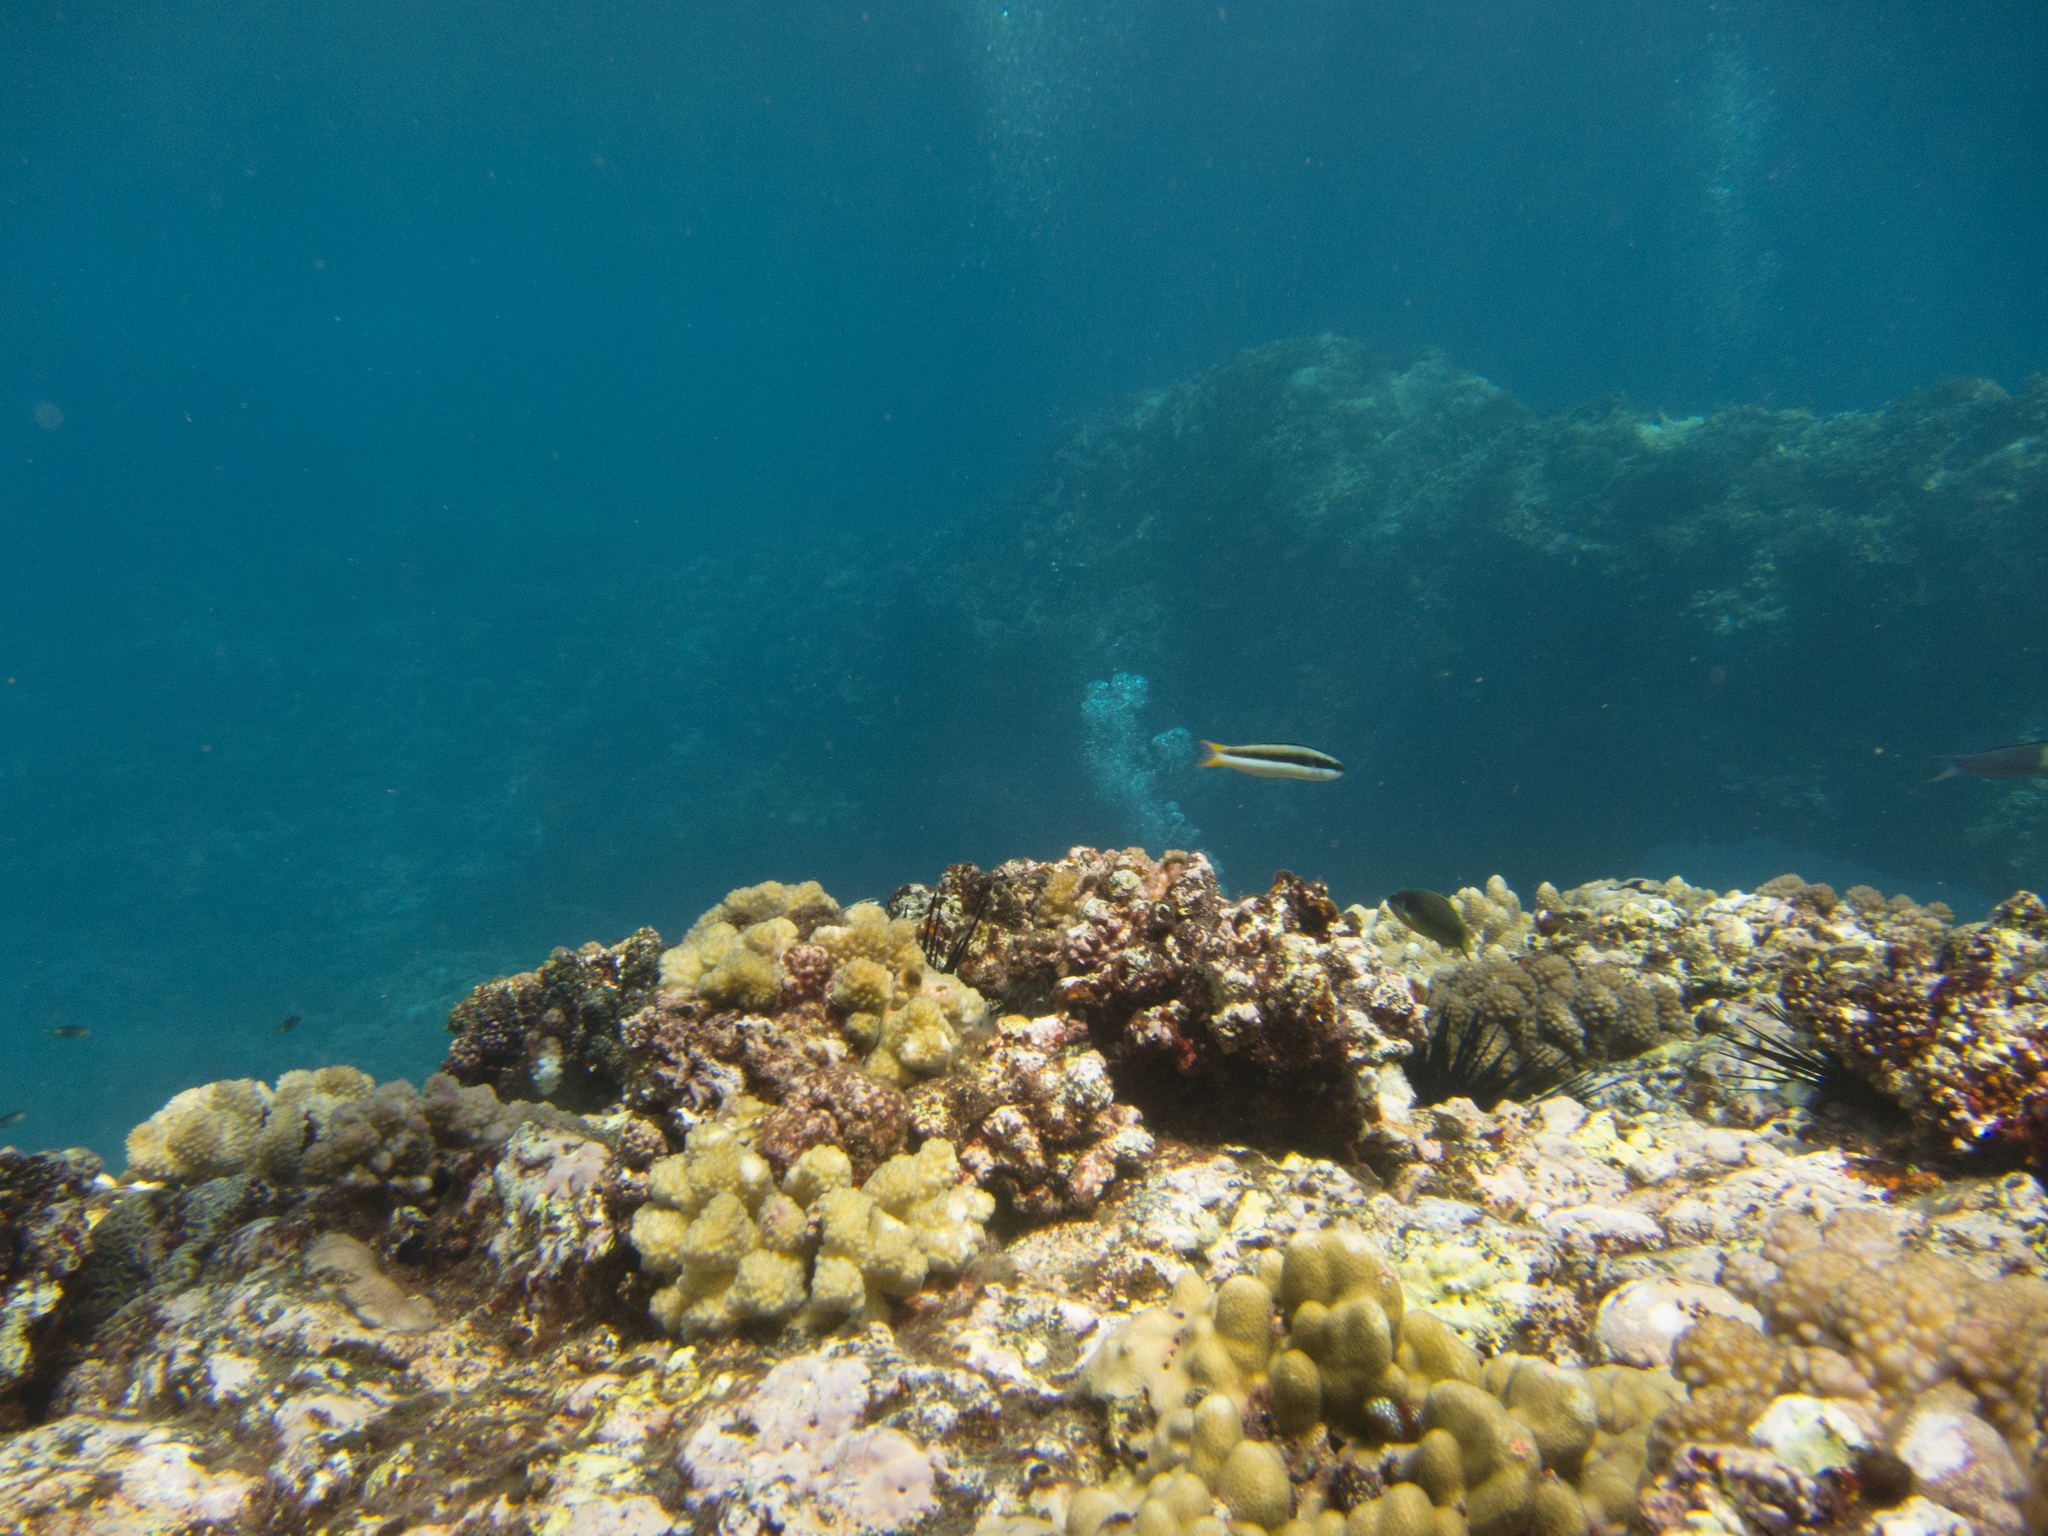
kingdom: Animalia
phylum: Chordata
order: Perciformes
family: Labridae
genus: Thalassoma
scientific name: Thalassoma amblycephalum
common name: Bluehead wrasse
